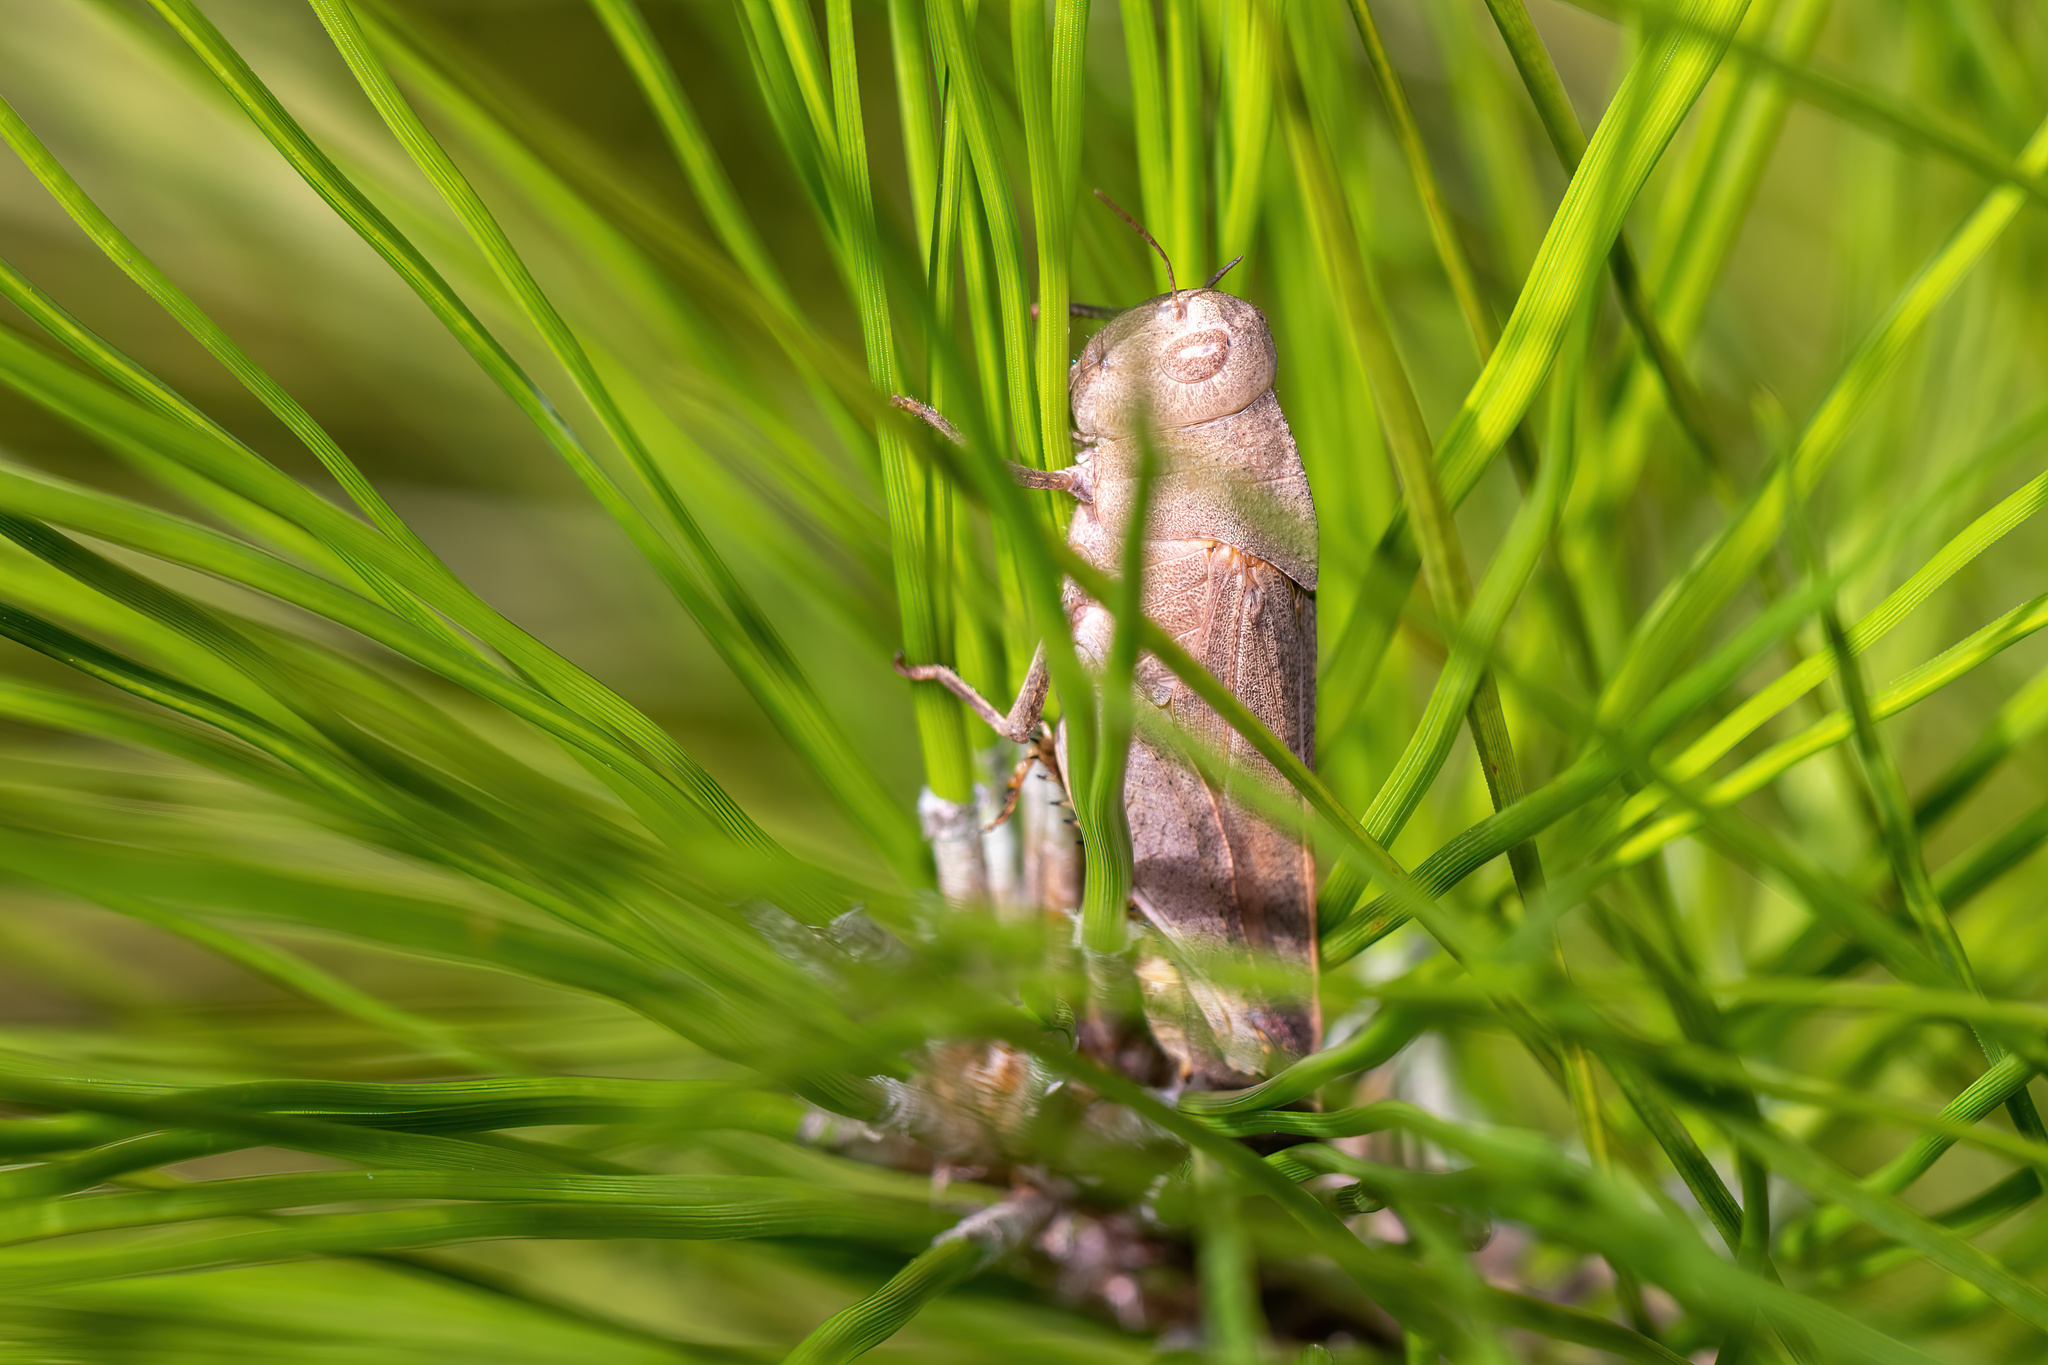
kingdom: Animalia
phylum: Arthropoda
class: Insecta
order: Orthoptera
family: Acrididae
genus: Arphia
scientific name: Arphia granulata
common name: Southern yellow-winged grasshopper
